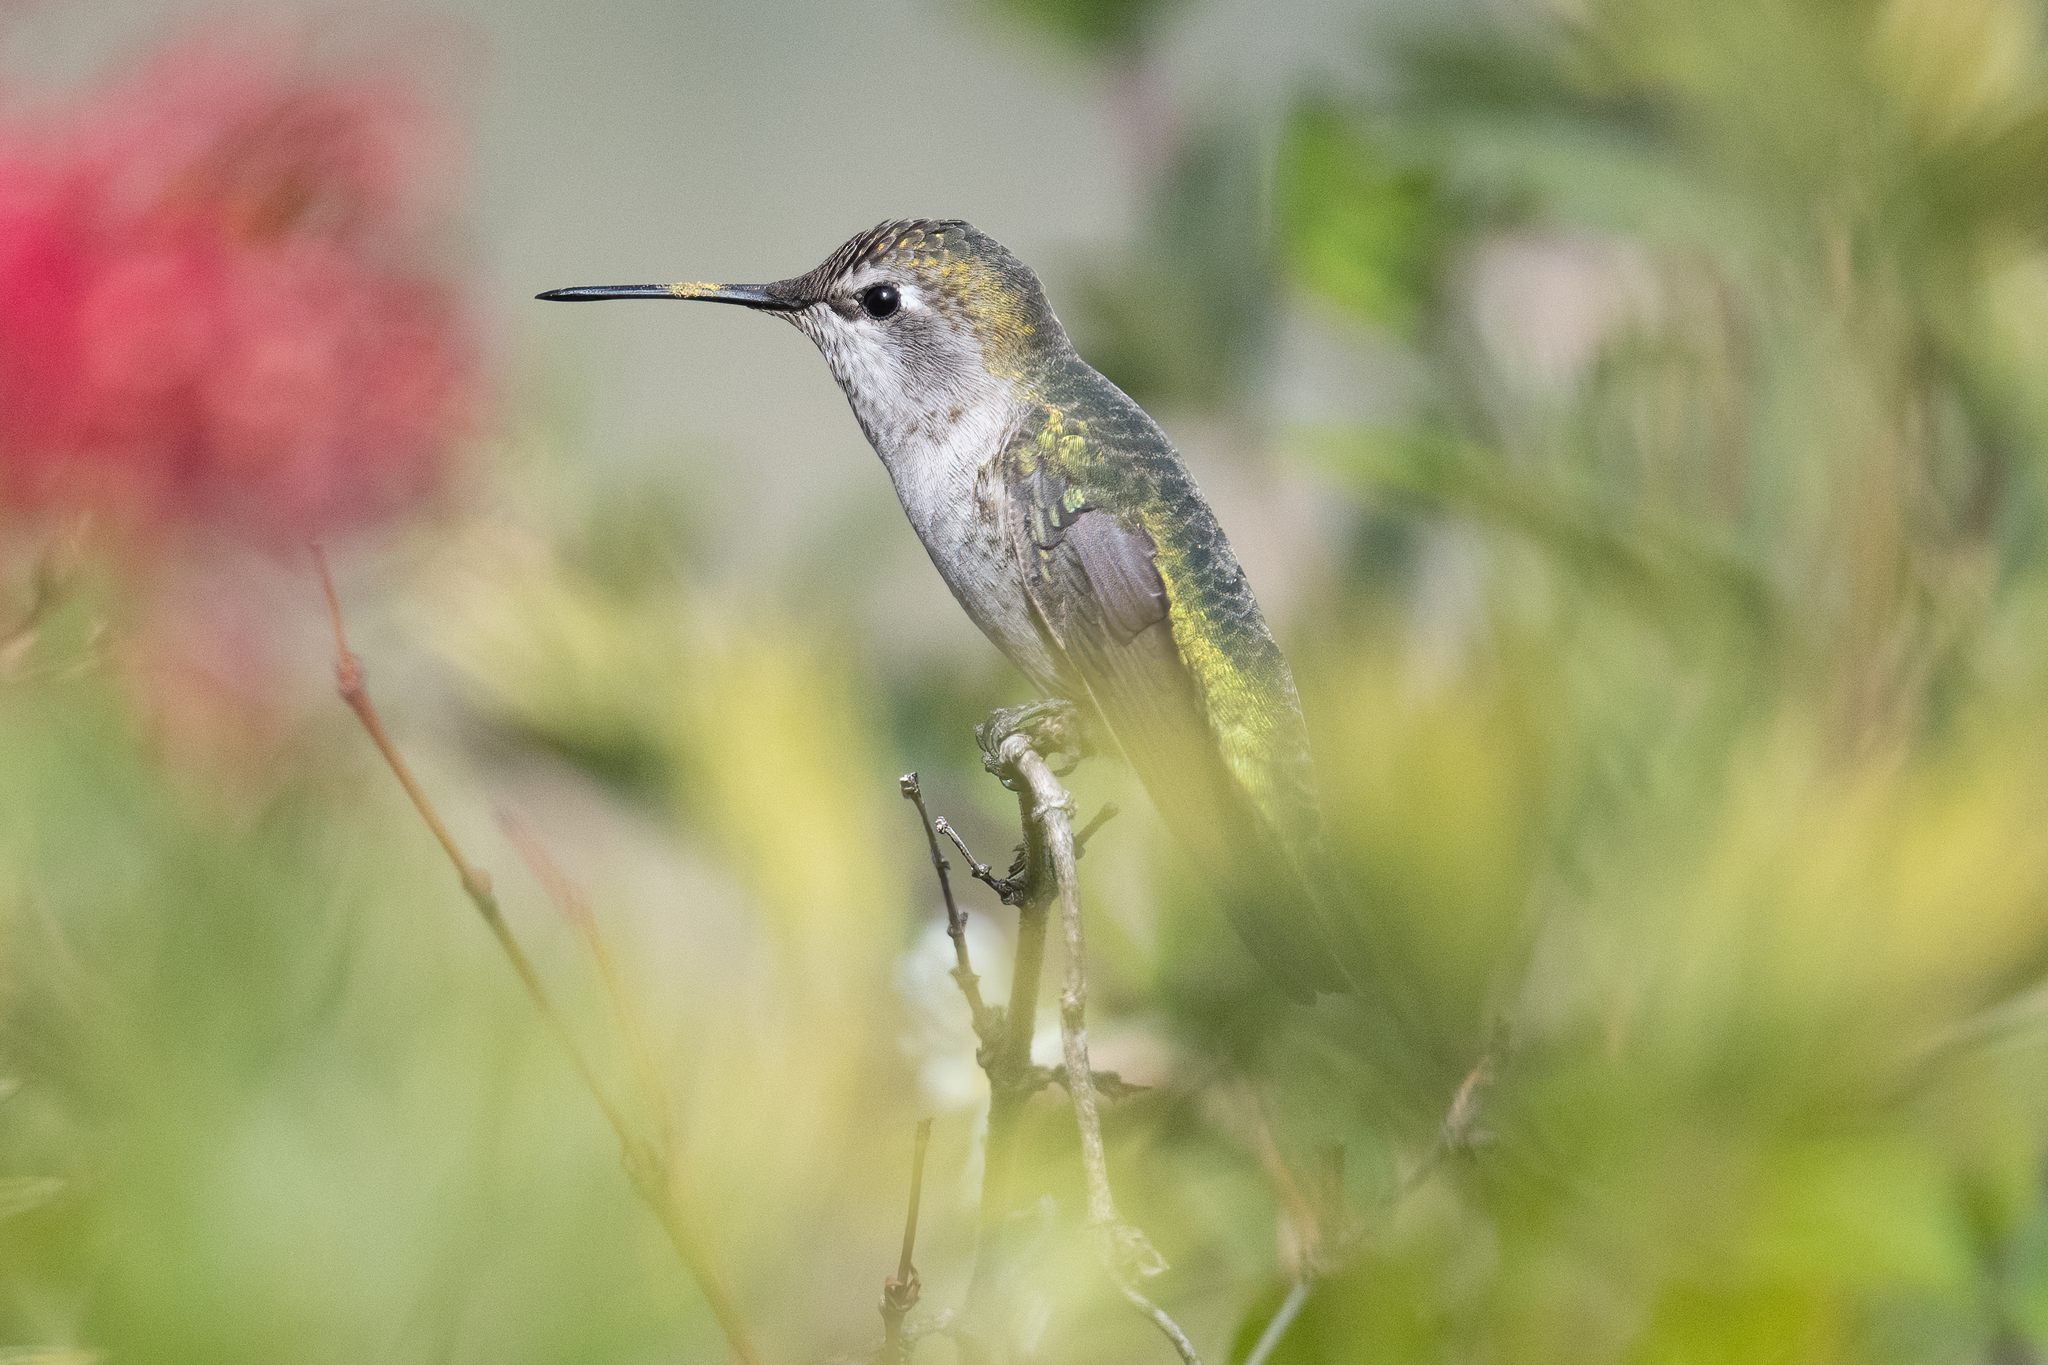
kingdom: Animalia
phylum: Chordata
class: Aves
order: Apodiformes
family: Trochilidae
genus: Calypte
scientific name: Calypte anna
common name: Anna's hummingbird
